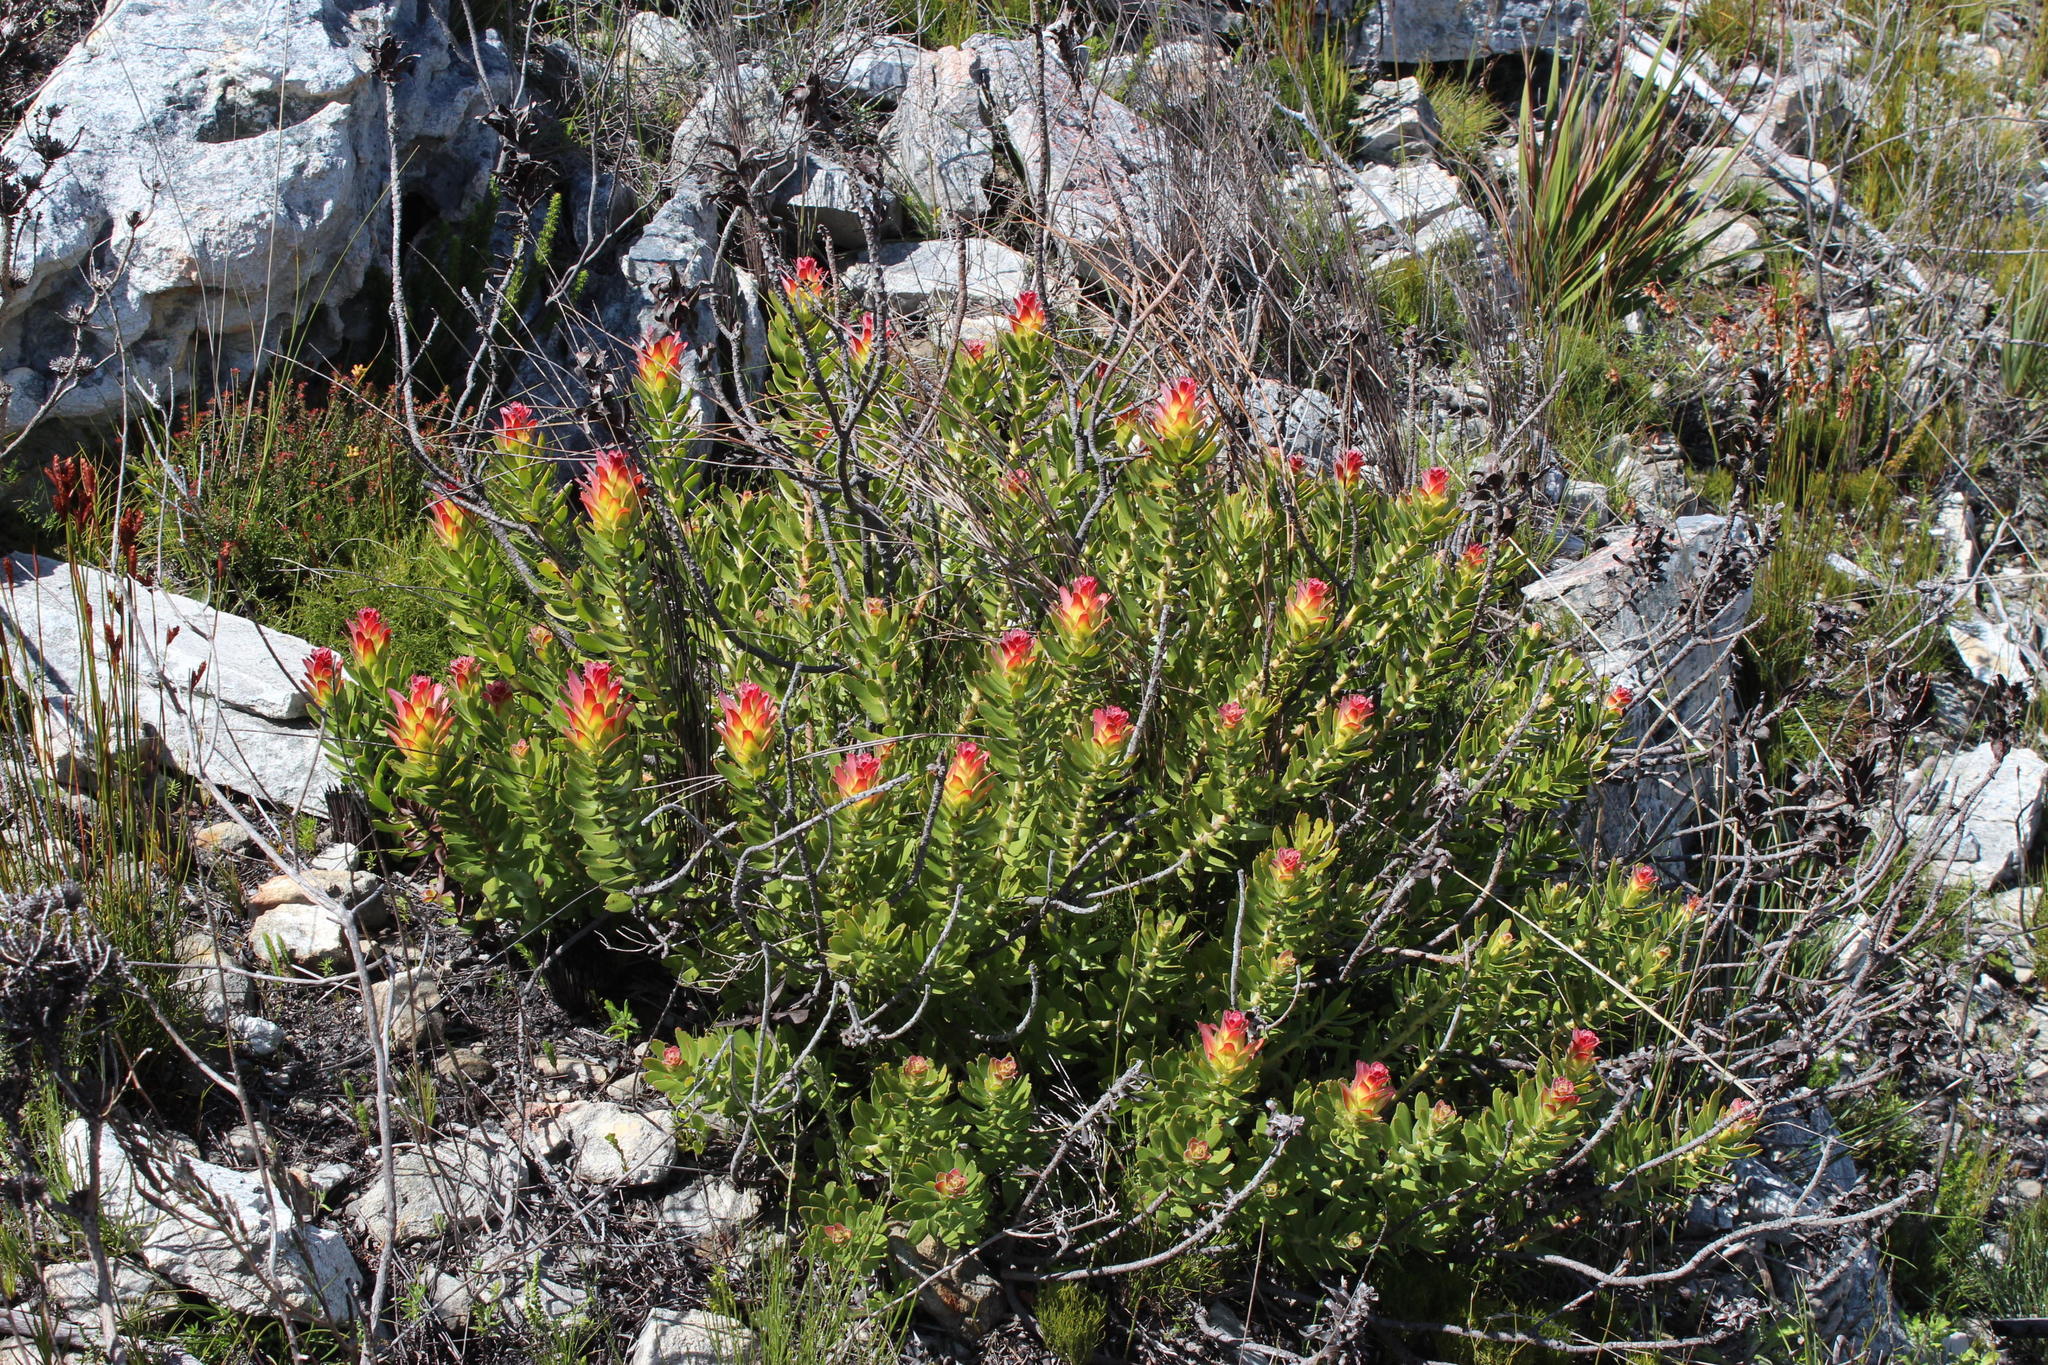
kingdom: Plantae
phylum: Tracheophyta
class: Magnoliopsida
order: Proteales
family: Proteaceae
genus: Mimetes
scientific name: Mimetes cucullatus
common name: Common pagoda
